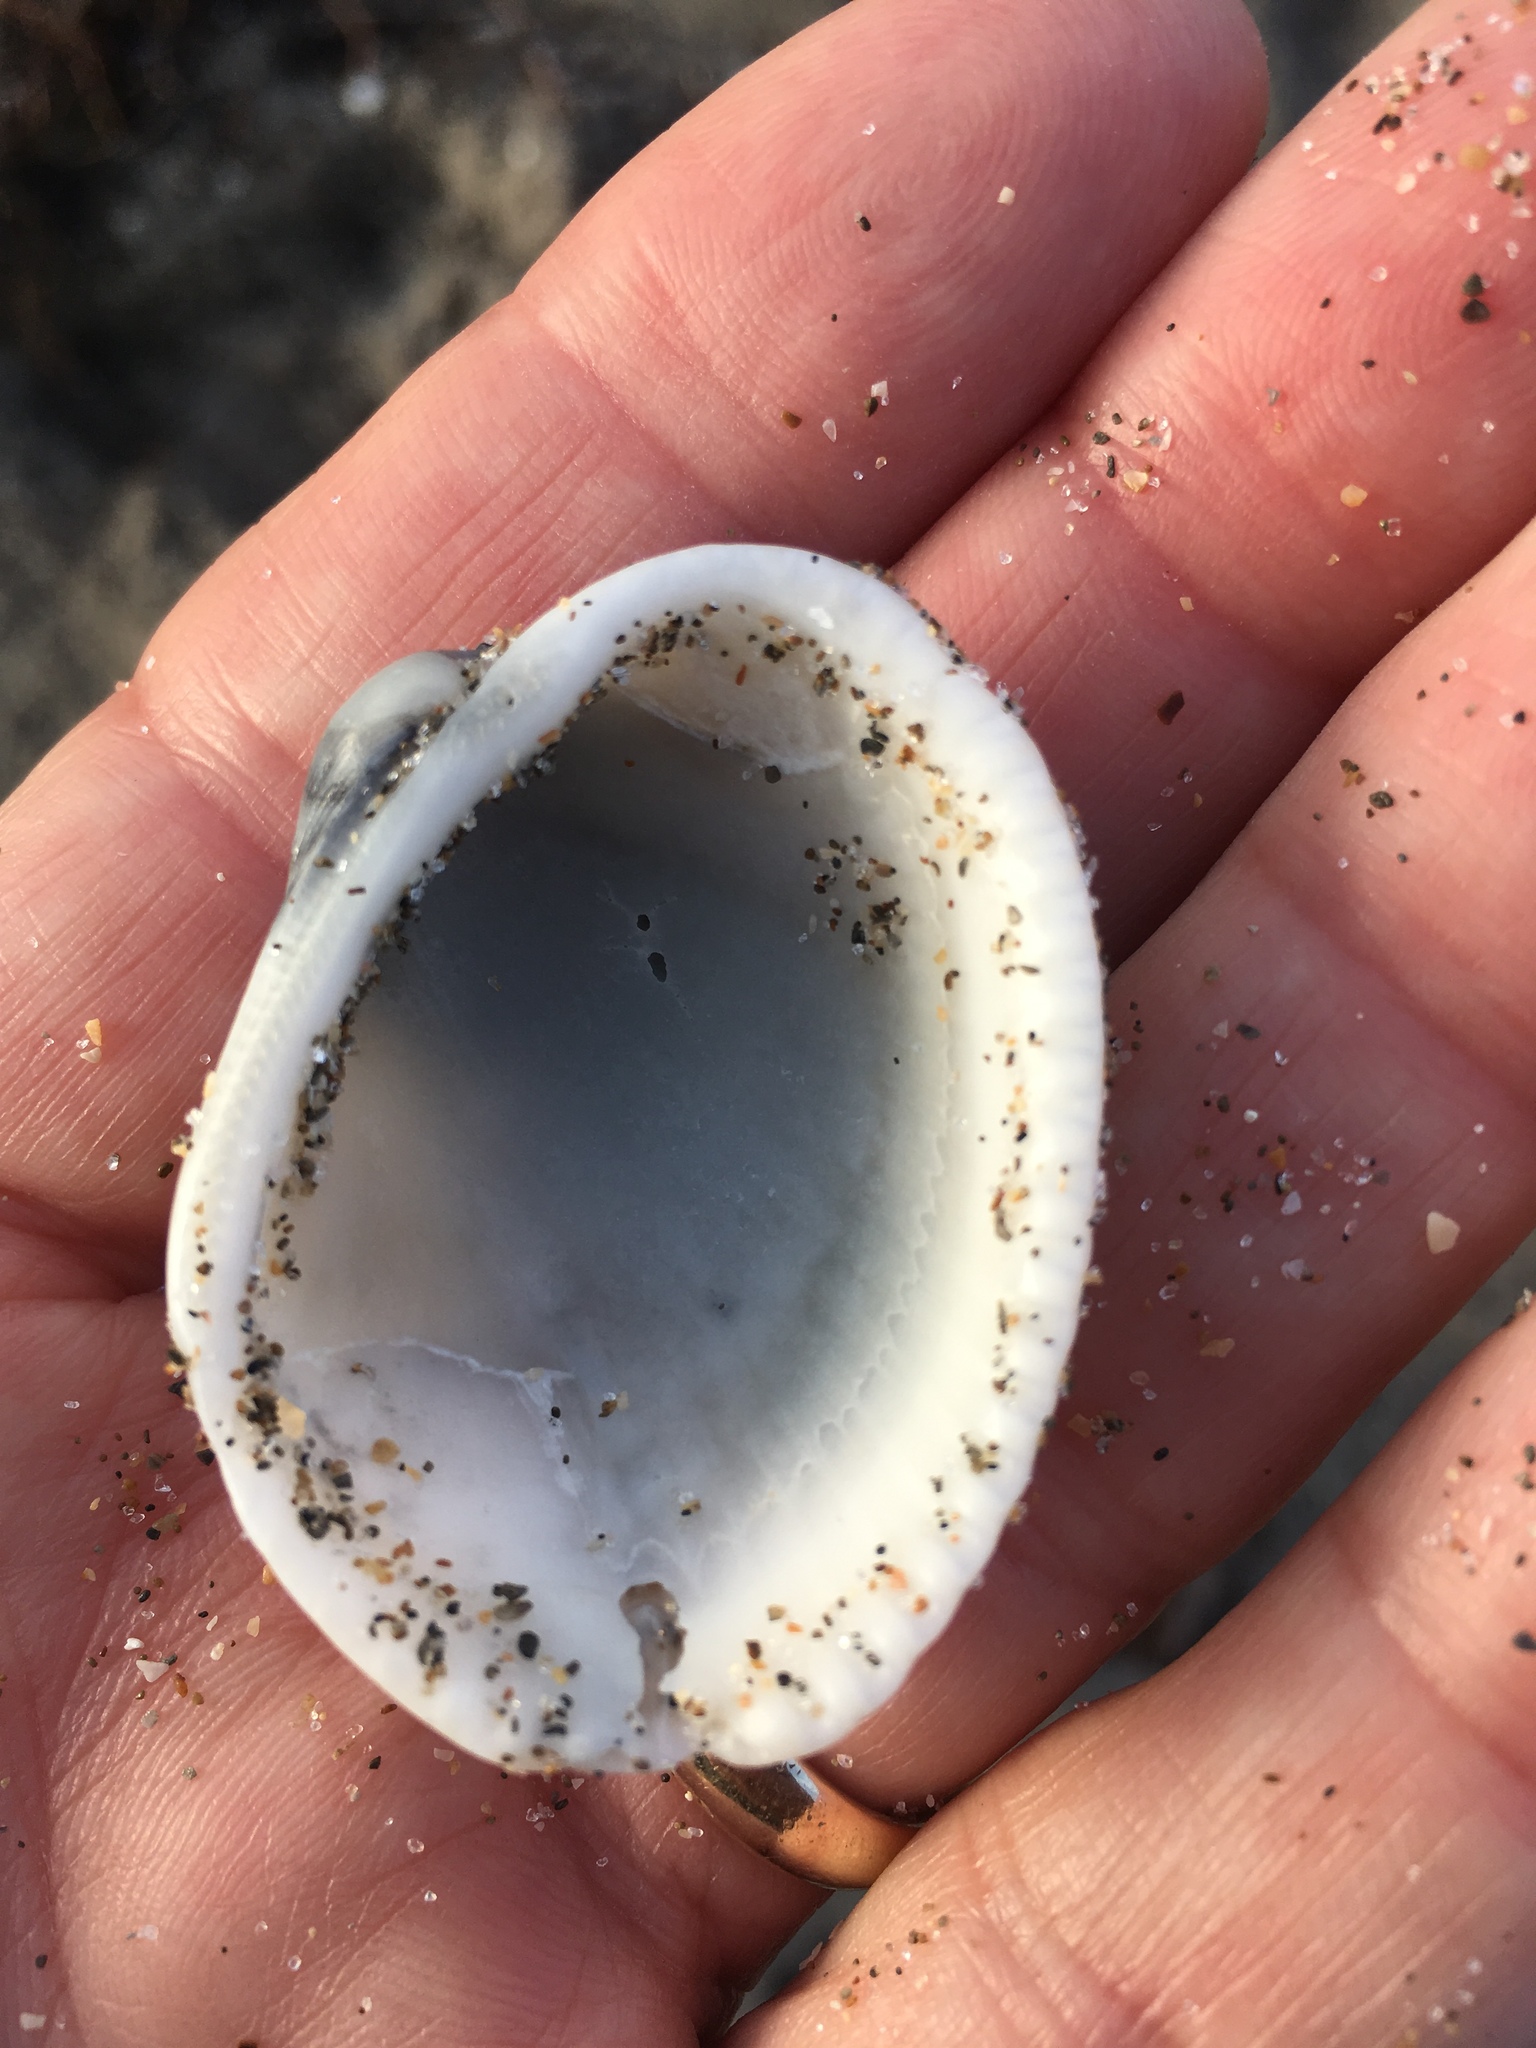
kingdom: Animalia
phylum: Mollusca
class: Bivalvia
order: Arcida
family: Arcidae
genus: Lunarca
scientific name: Lunarca ovalis
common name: Blood ark
